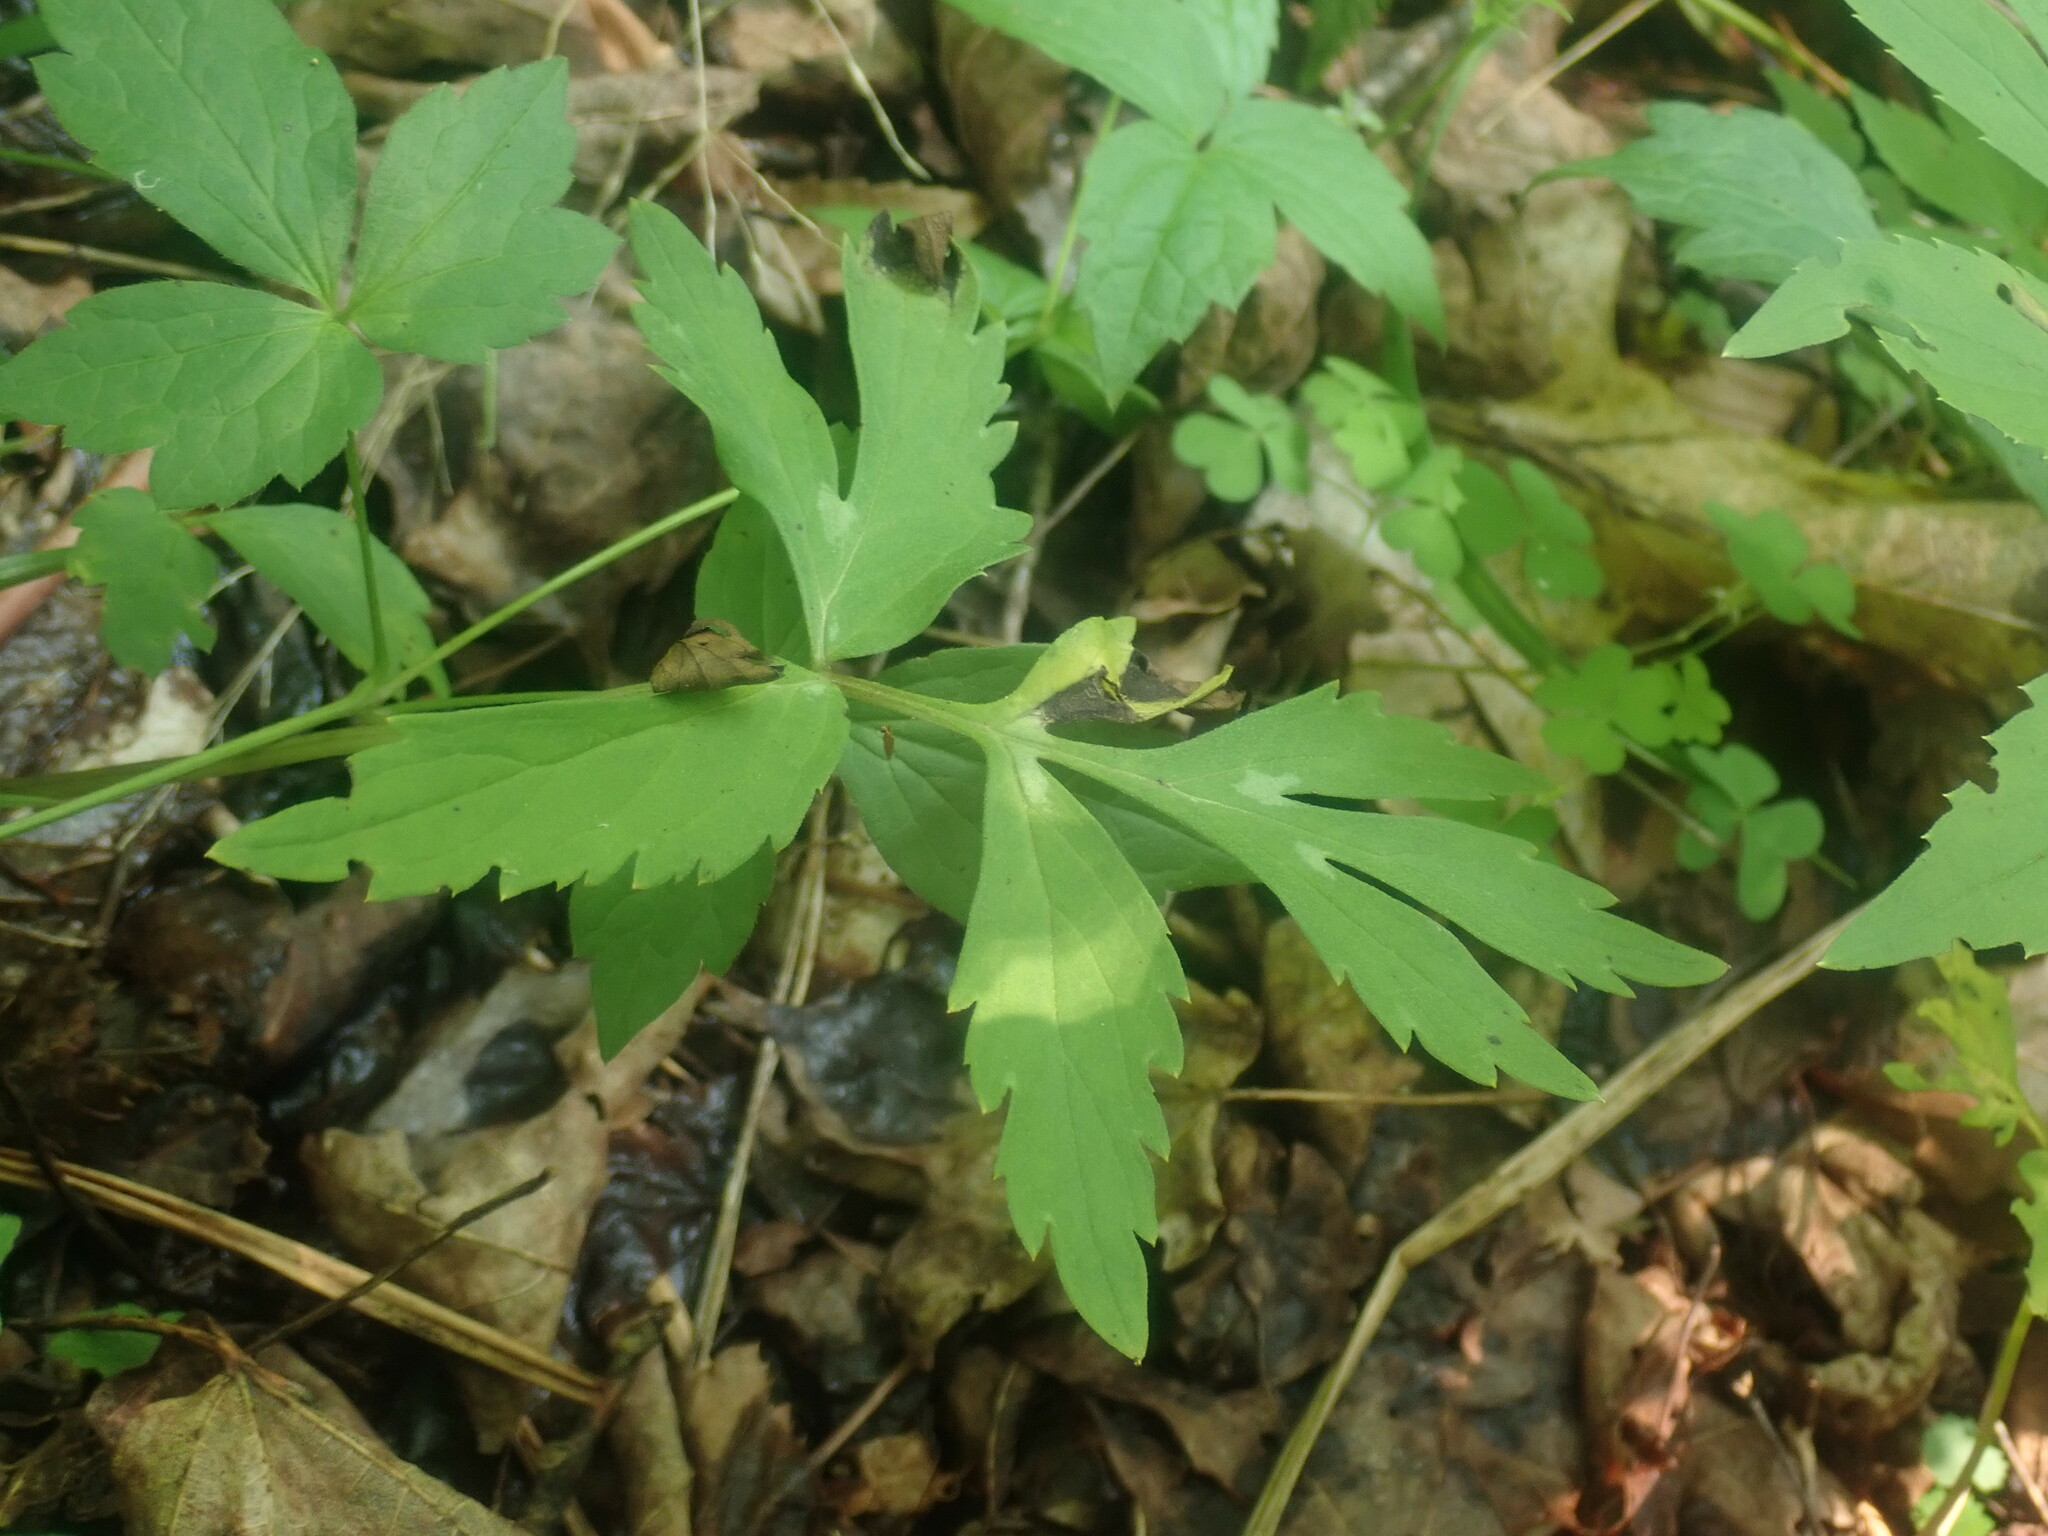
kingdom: Plantae
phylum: Tracheophyta
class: Magnoliopsida
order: Boraginales
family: Hydrophyllaceae
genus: Hydrophyllum
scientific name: Hydrophyllum virginianum
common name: Virginia waterleaf
